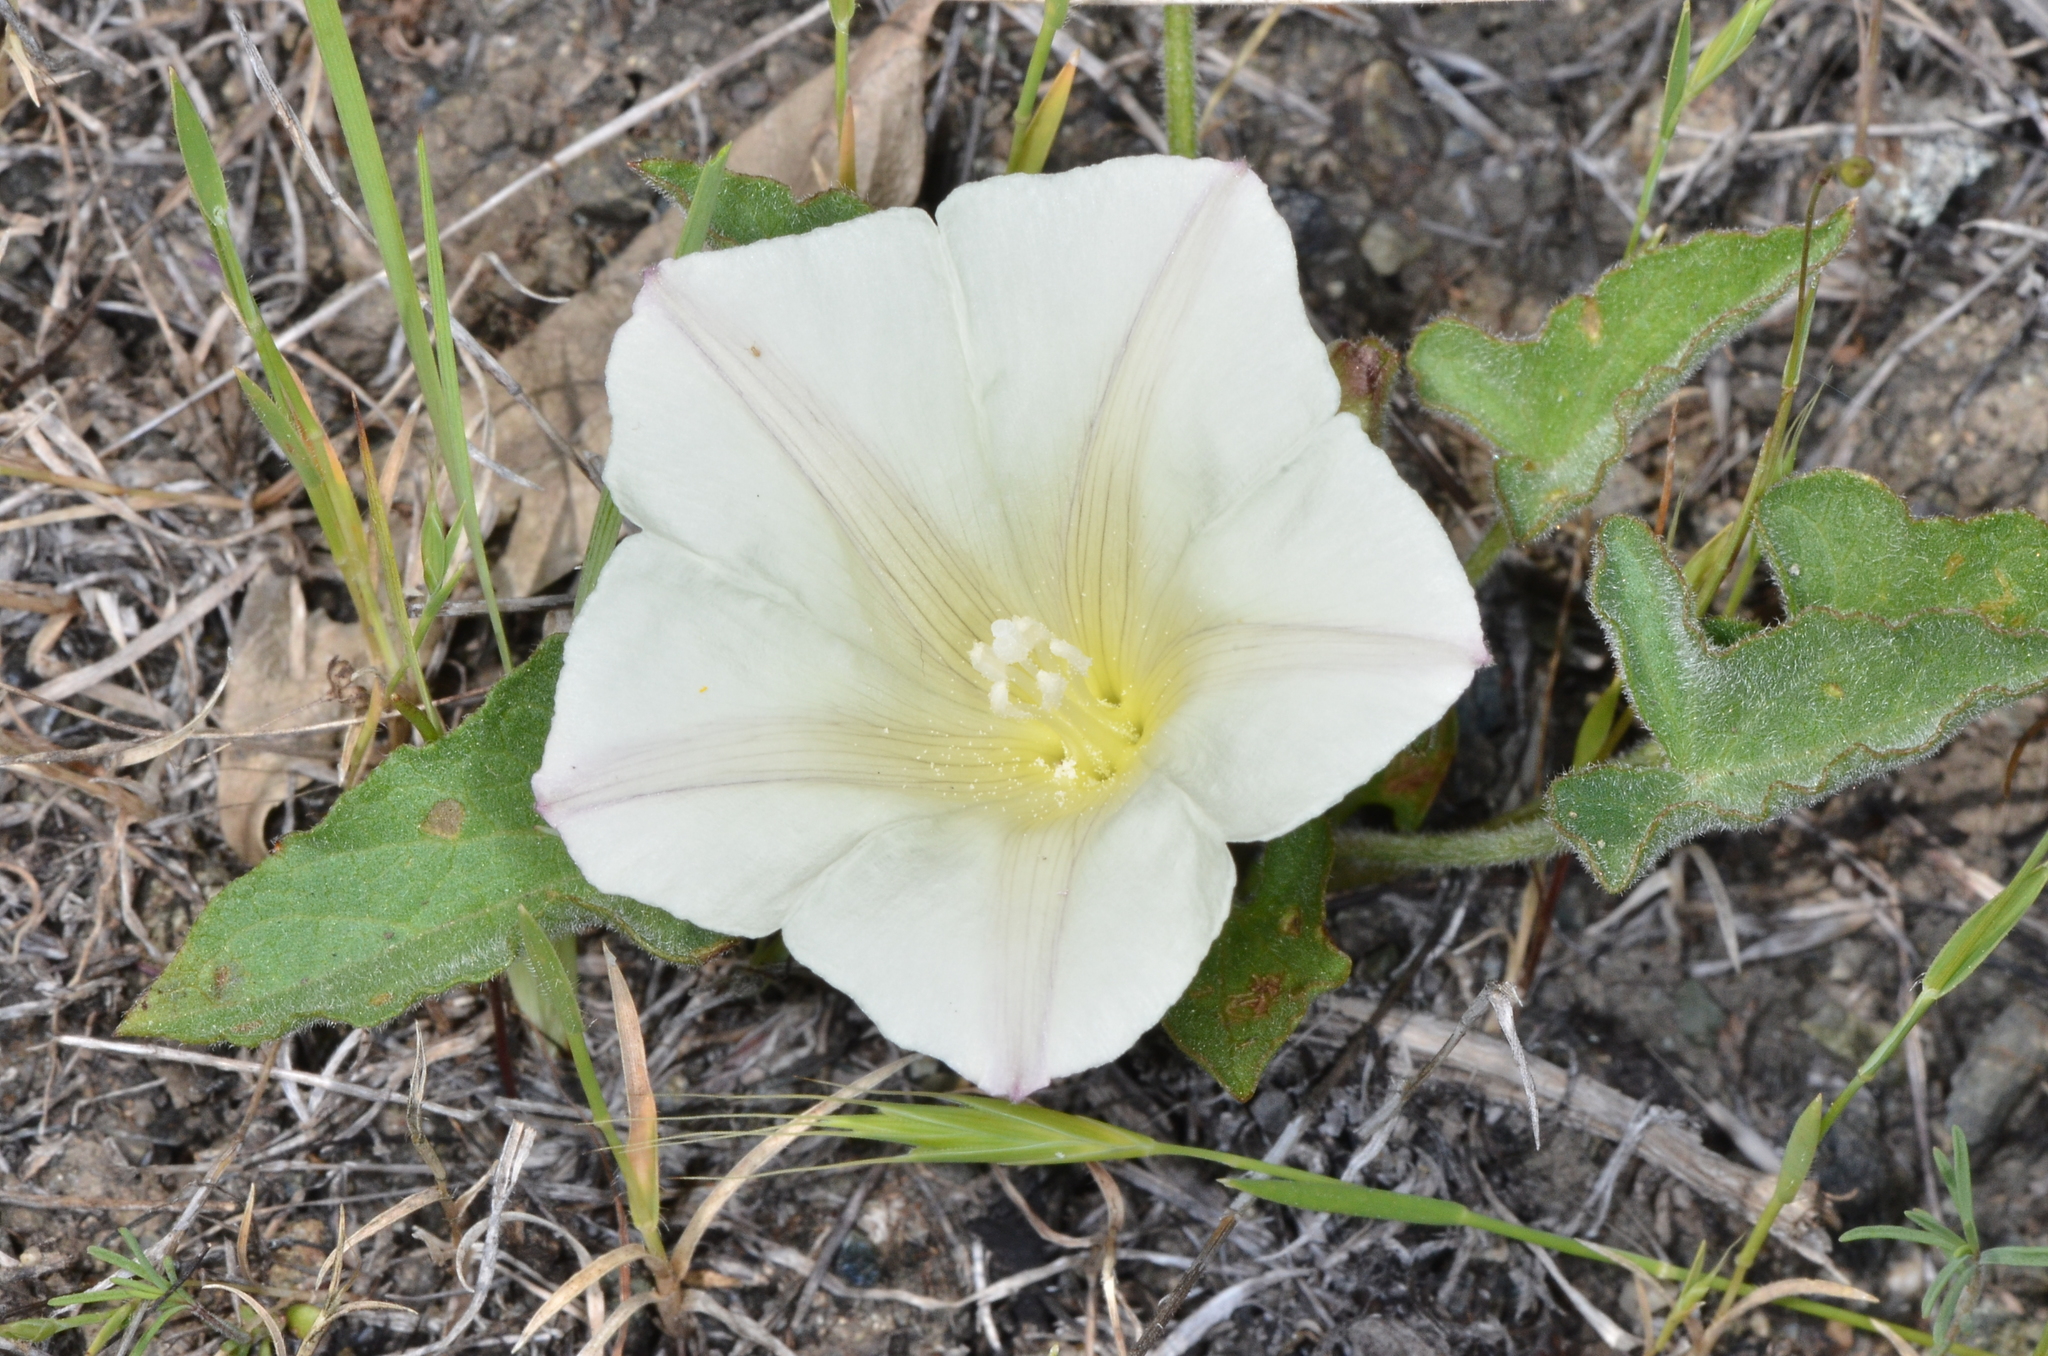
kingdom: Plantae
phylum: Tracheophyta
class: Magnoliopsida
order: Solanales
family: Convolvulaceae
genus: Calystegia
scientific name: Calystegia subacaulis
